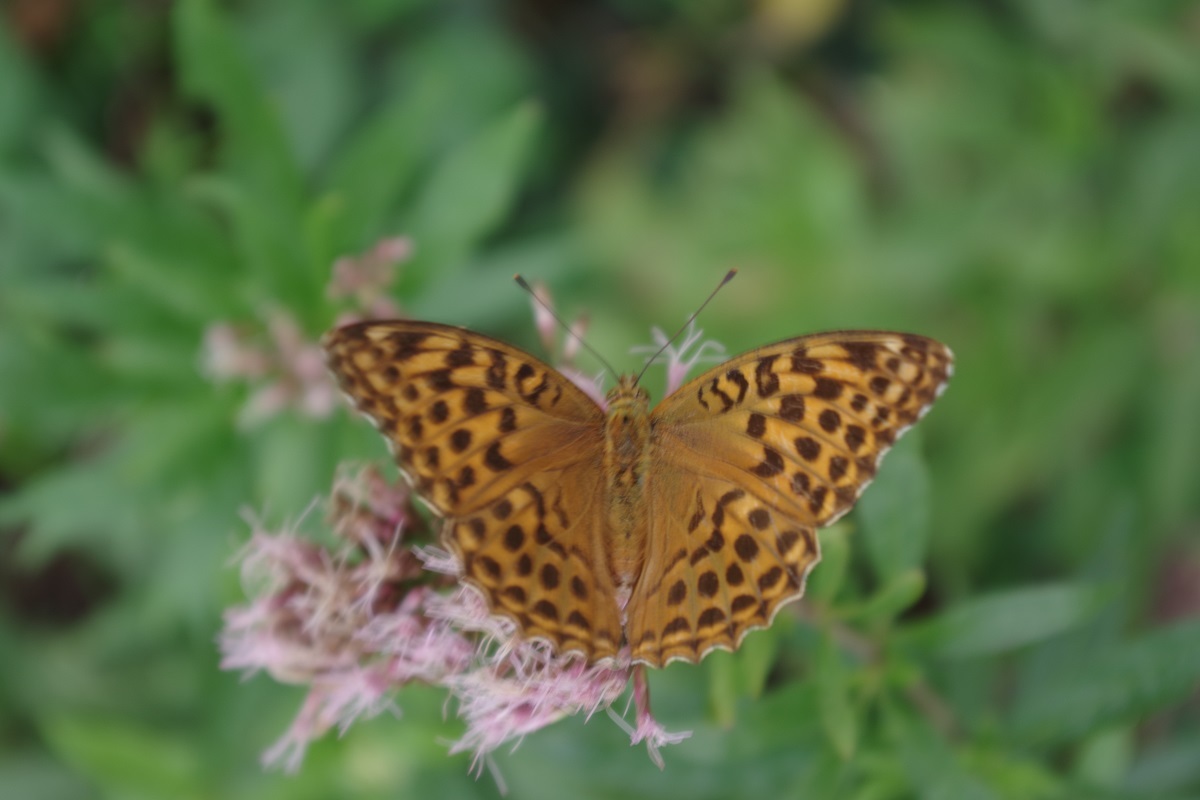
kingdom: Animalia
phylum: Arthropoda
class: Insecta
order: Lepidoptera
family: Nymphalidae
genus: Argynnis
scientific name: Argynnis paphia
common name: Silver-washed fritillary
